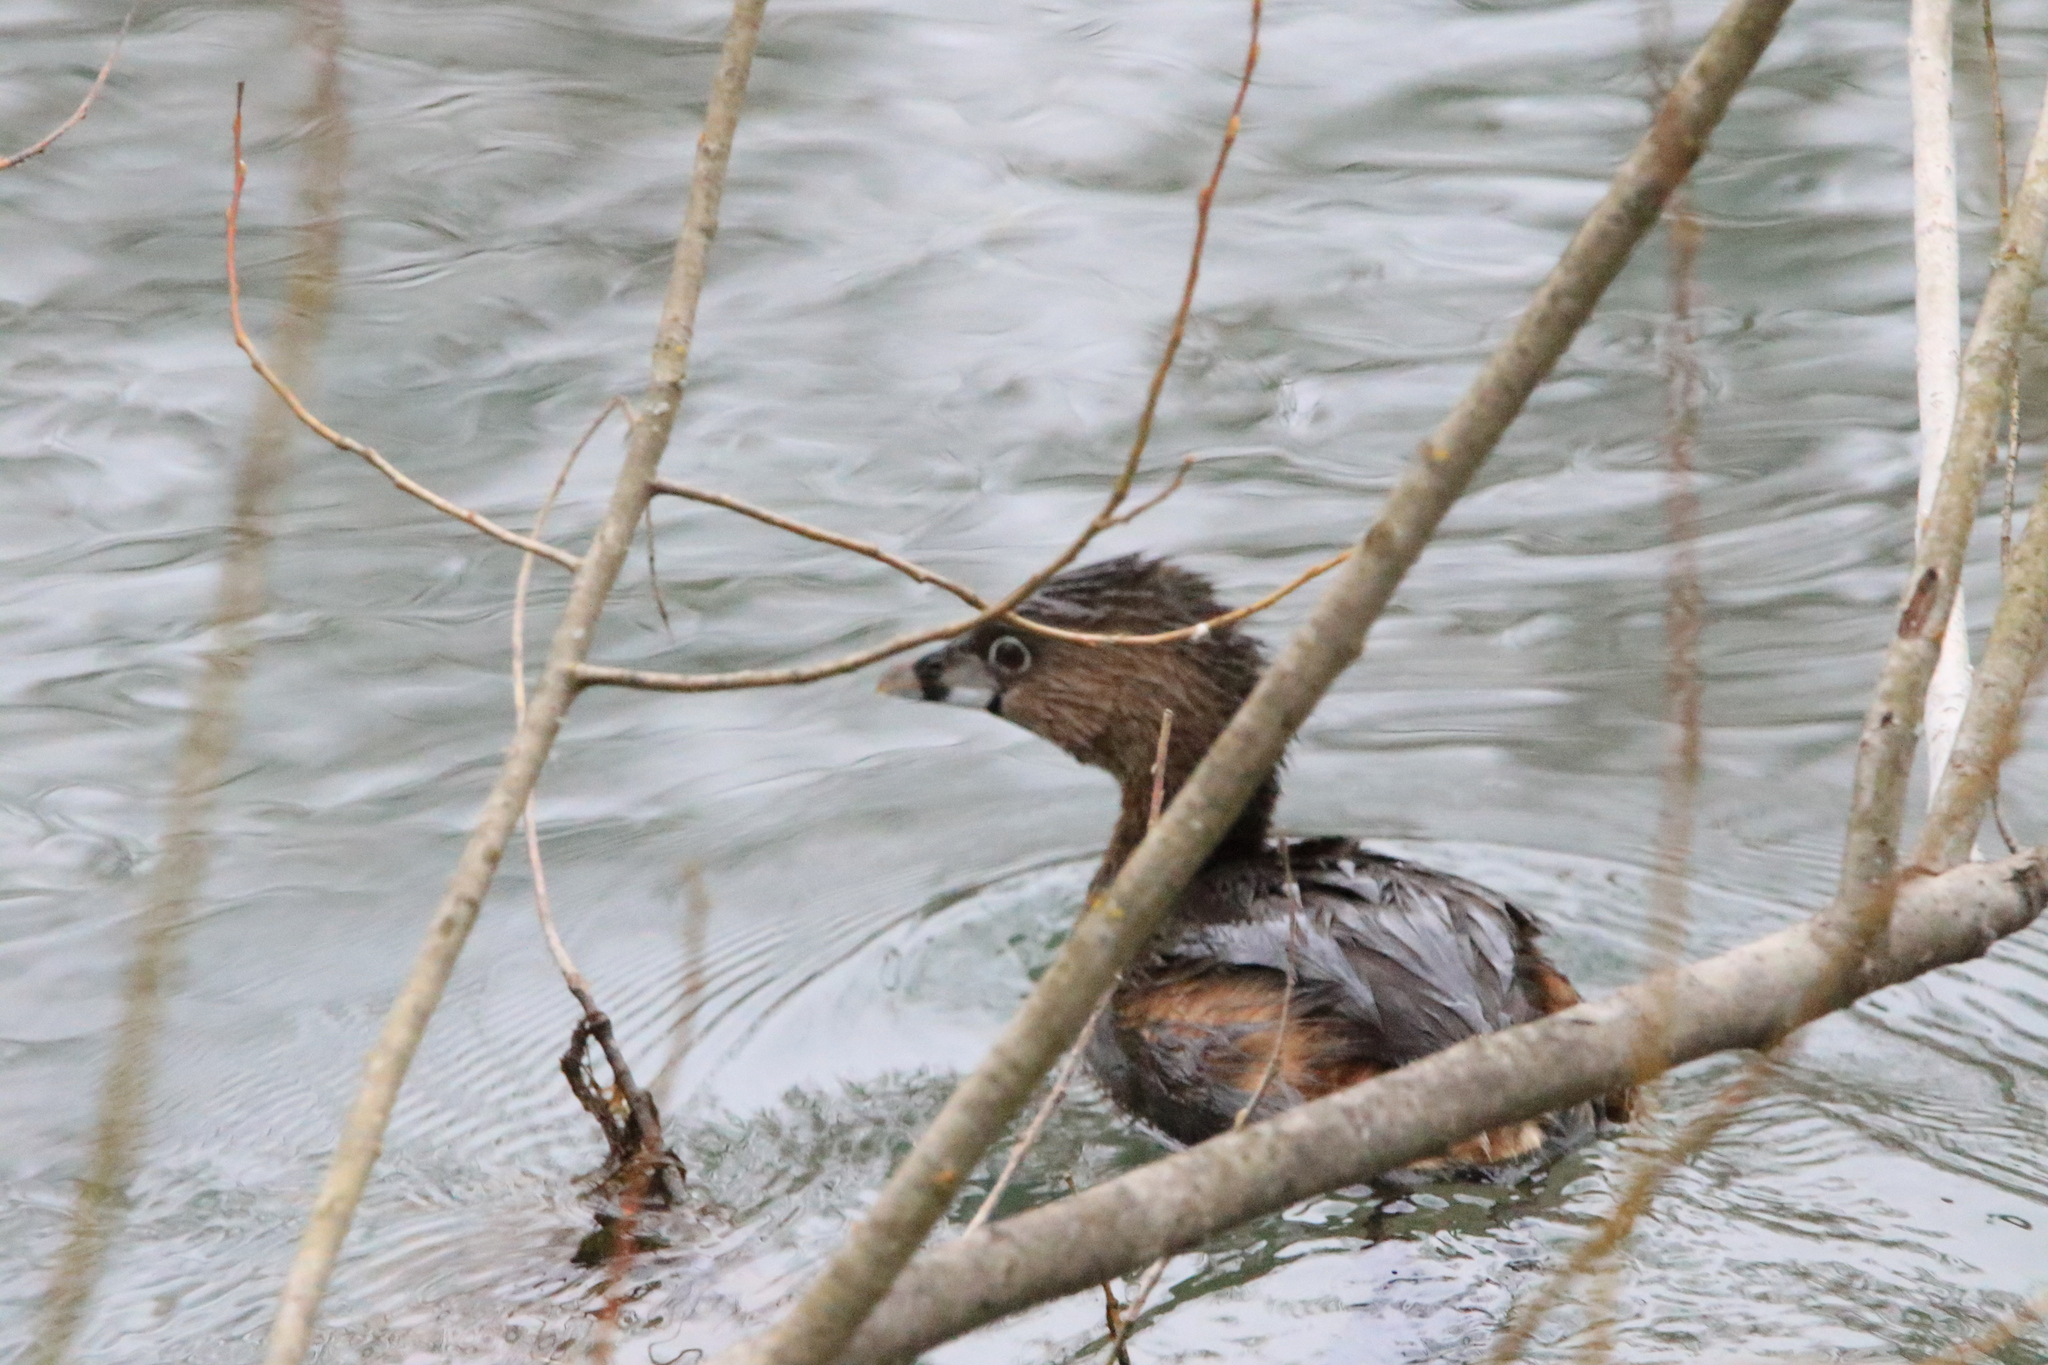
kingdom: Animalia
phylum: Chordata
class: Aves
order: Podicipediformes
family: Podicipedidae
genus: Podilymbus
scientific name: Podilymbus podiceps
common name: Pied-billed grebe
